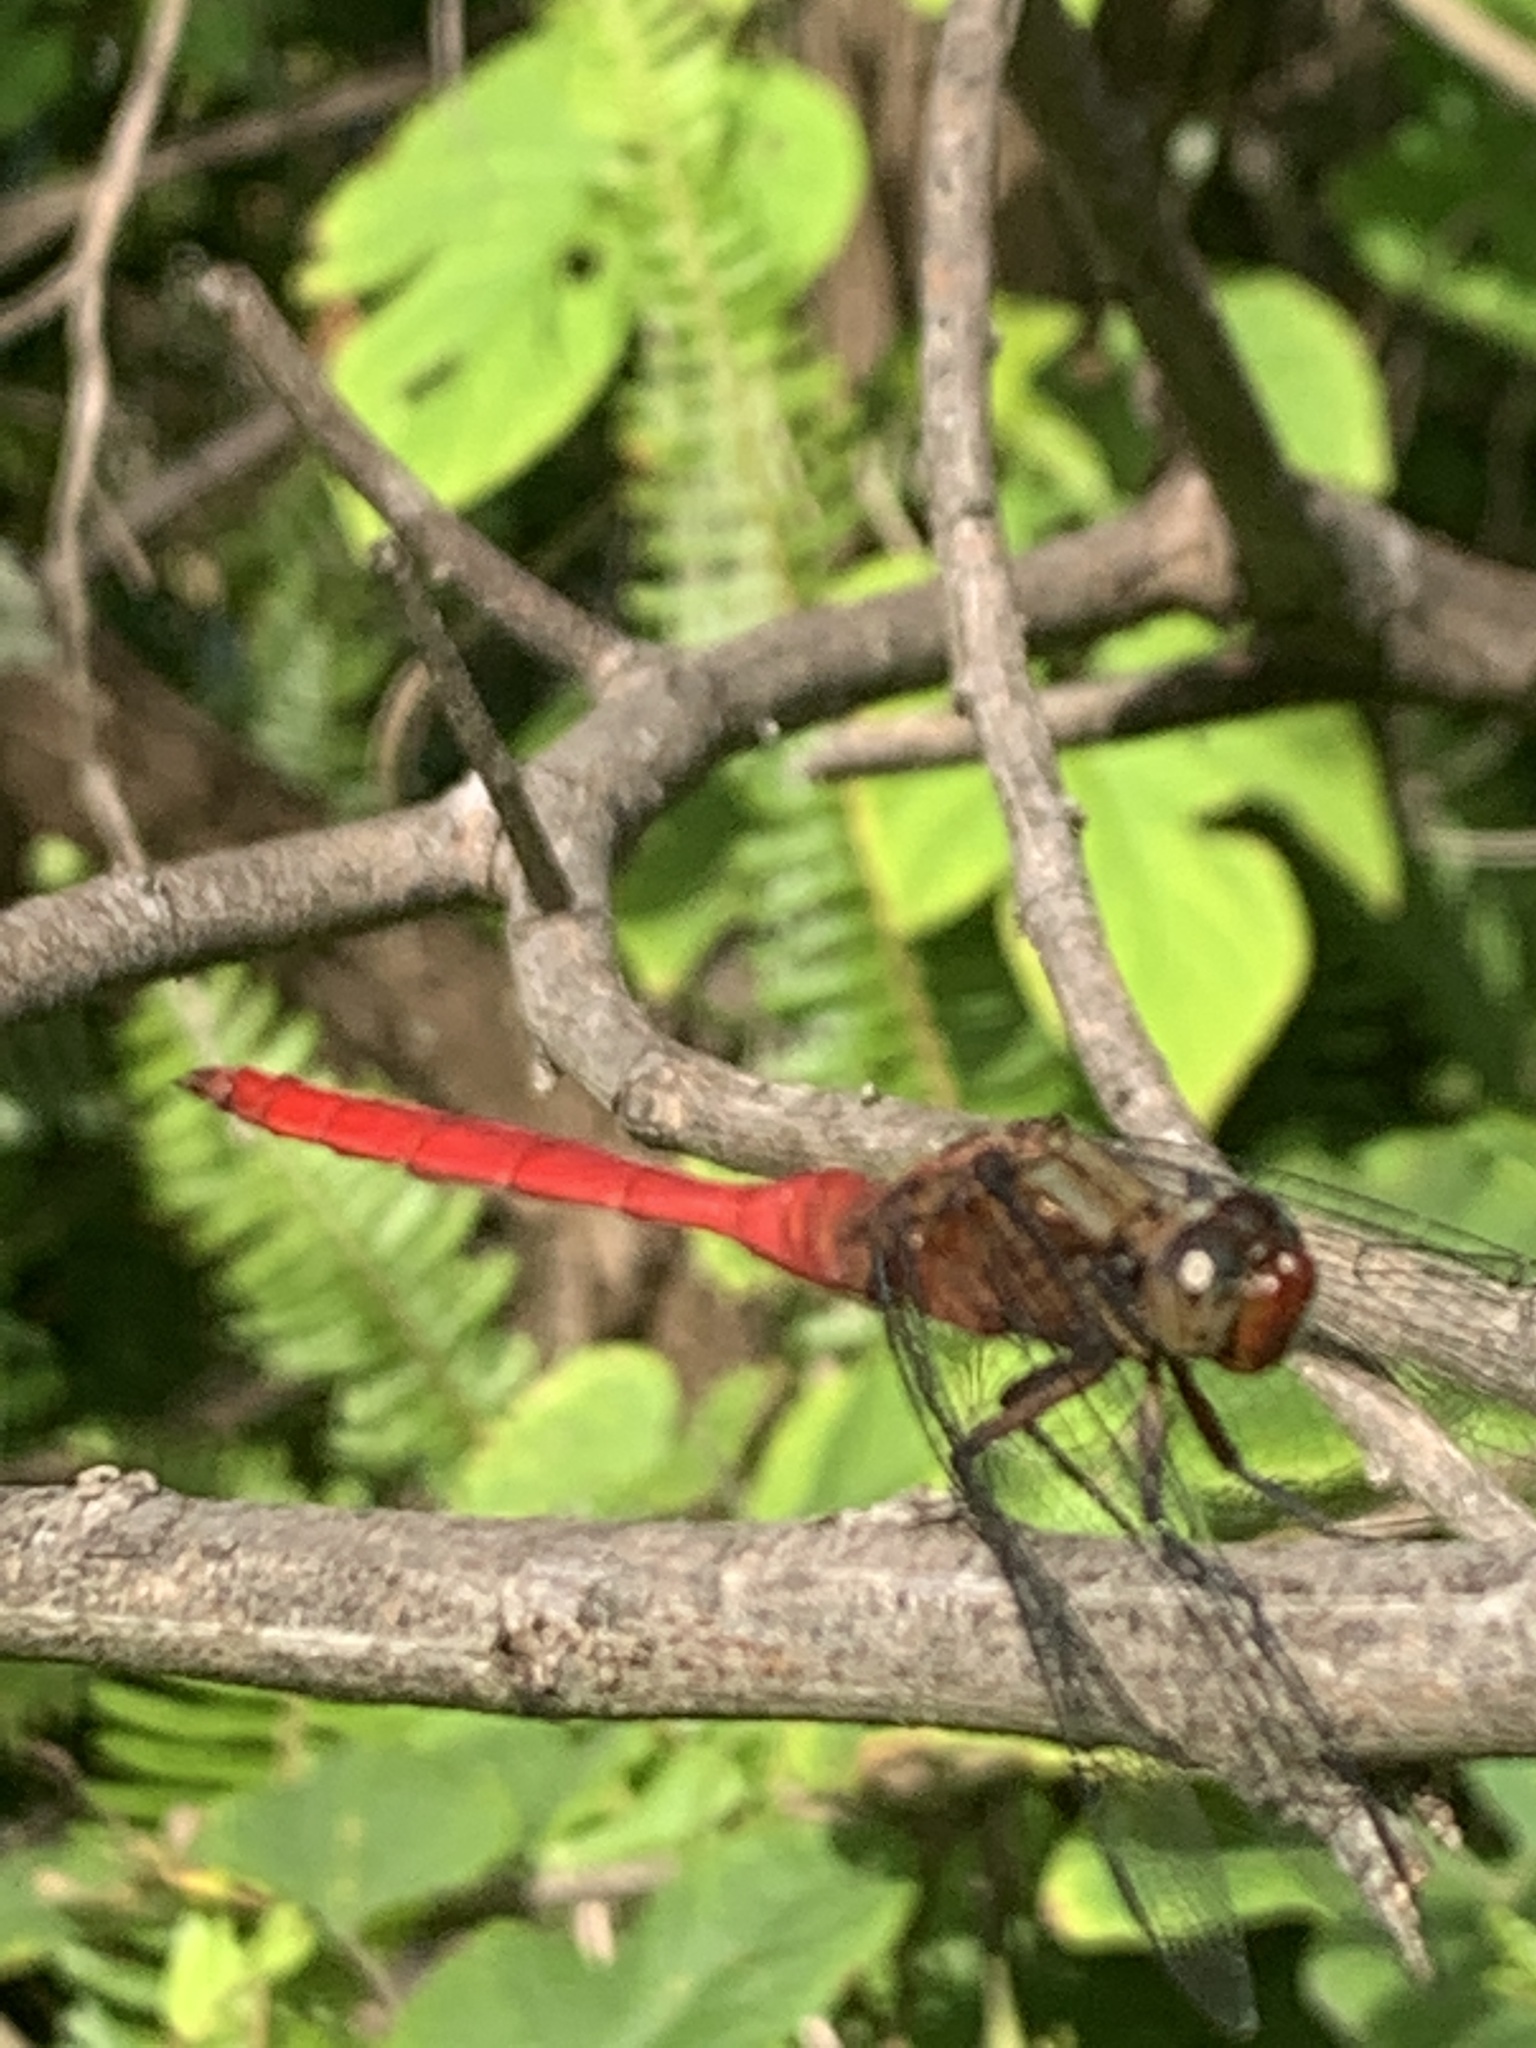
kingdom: Animalia
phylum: Arthropoda
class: Insecta
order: Odonata
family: Libellulidae
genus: Orthetrum
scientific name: Orthetrum villosovittatum
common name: Firery skimmer
